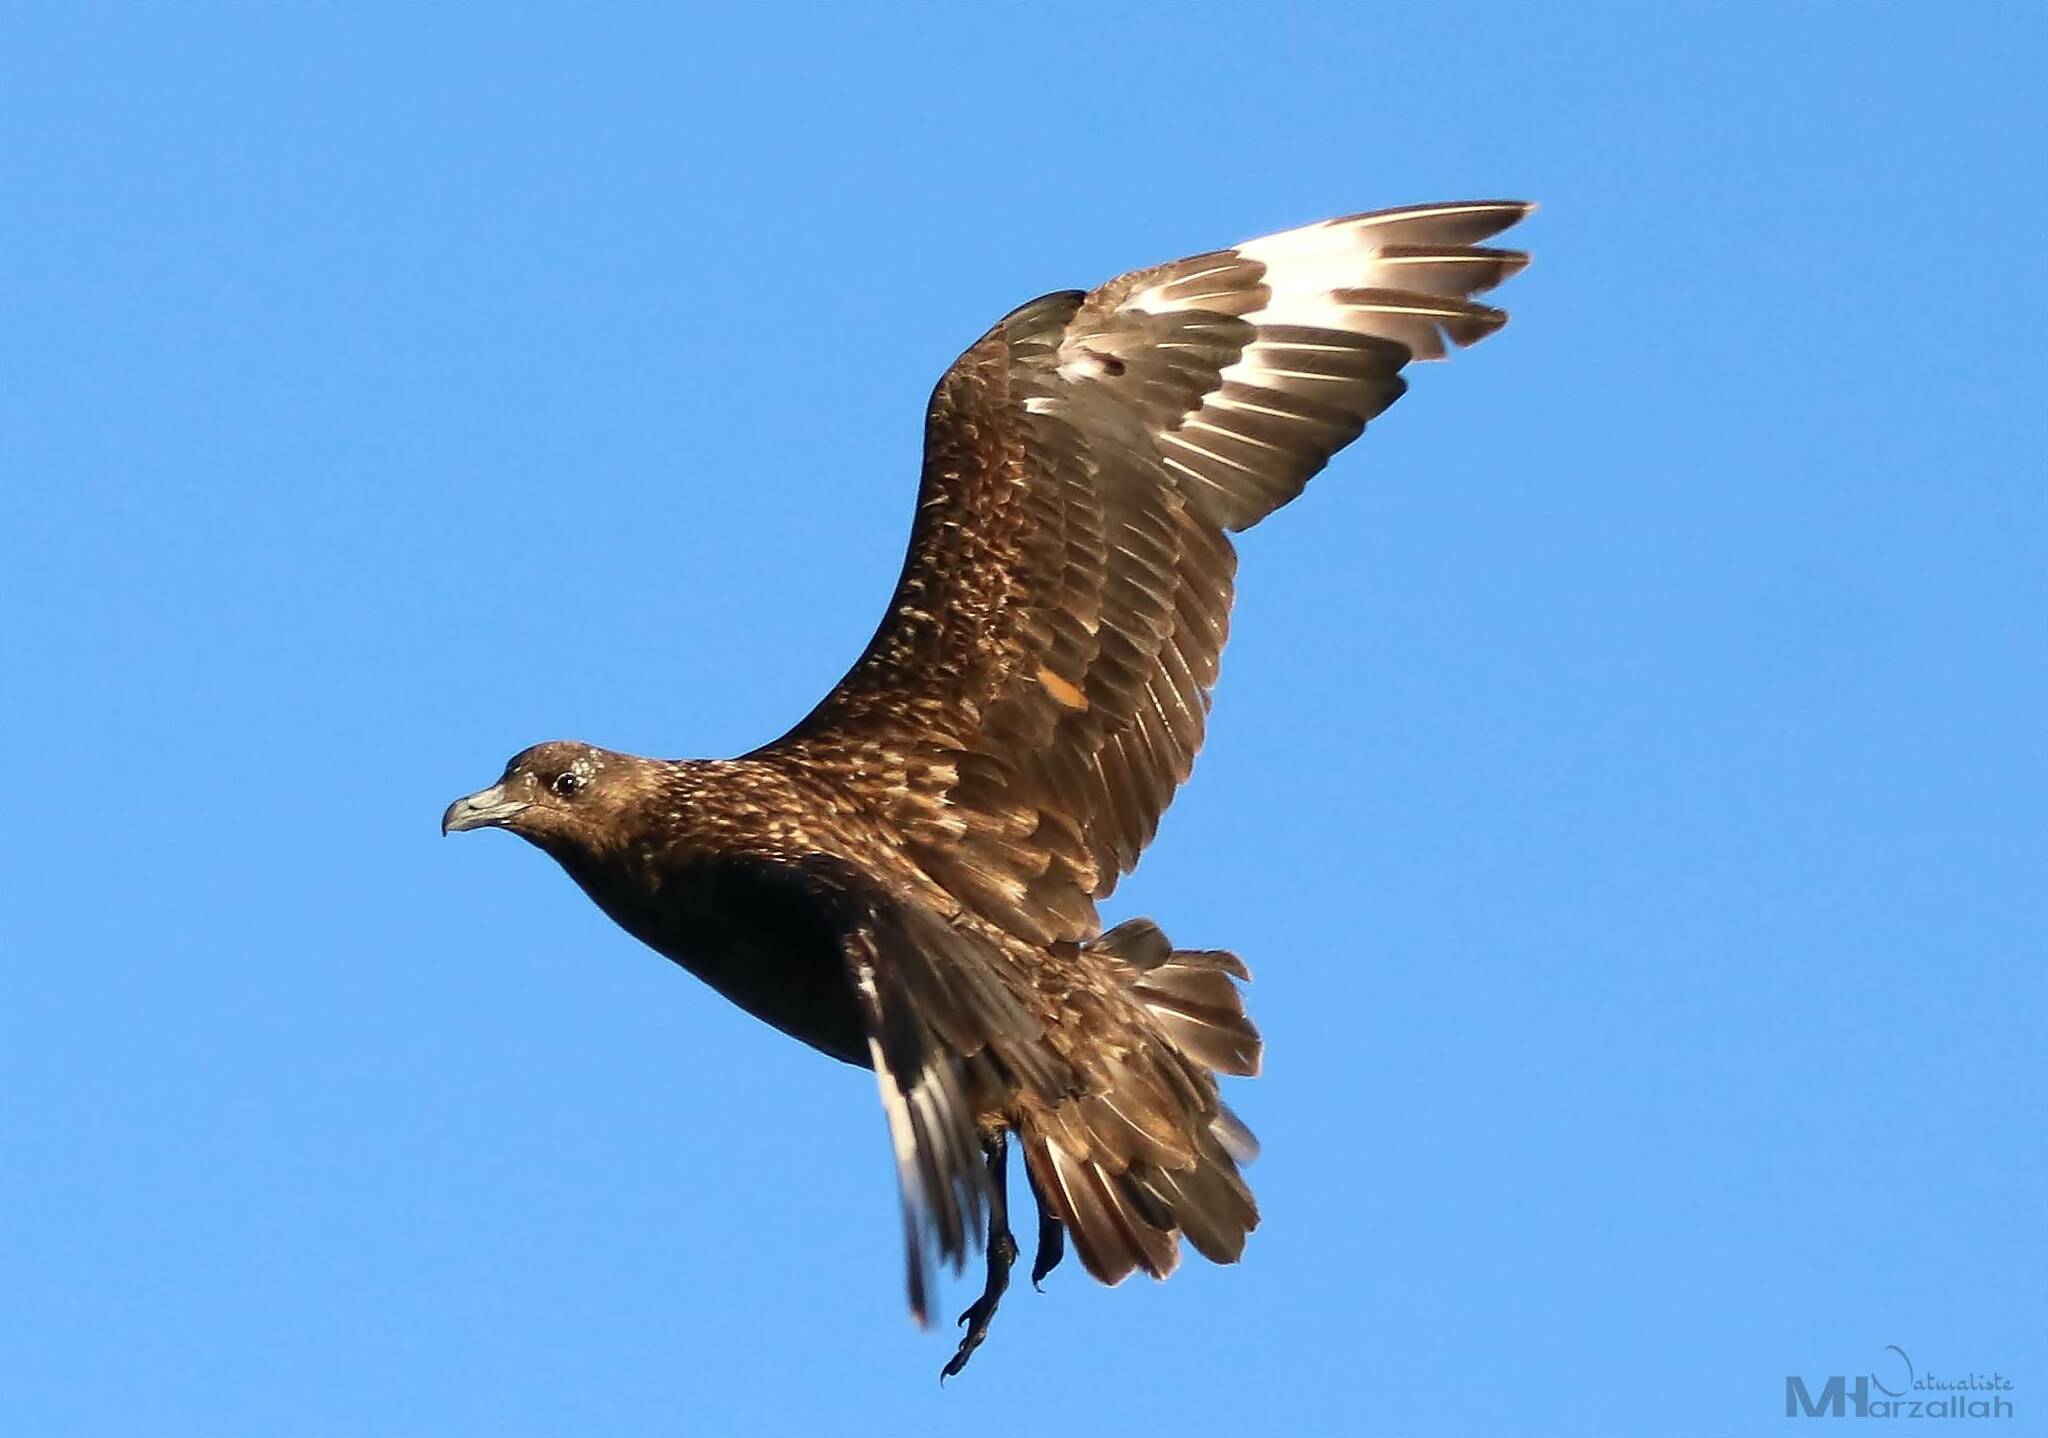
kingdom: Animalia
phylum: Chordata
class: Aves
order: Charadriiformes
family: Stercorariidae
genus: Stercorarius
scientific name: Stercorarius skua
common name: Great skua
